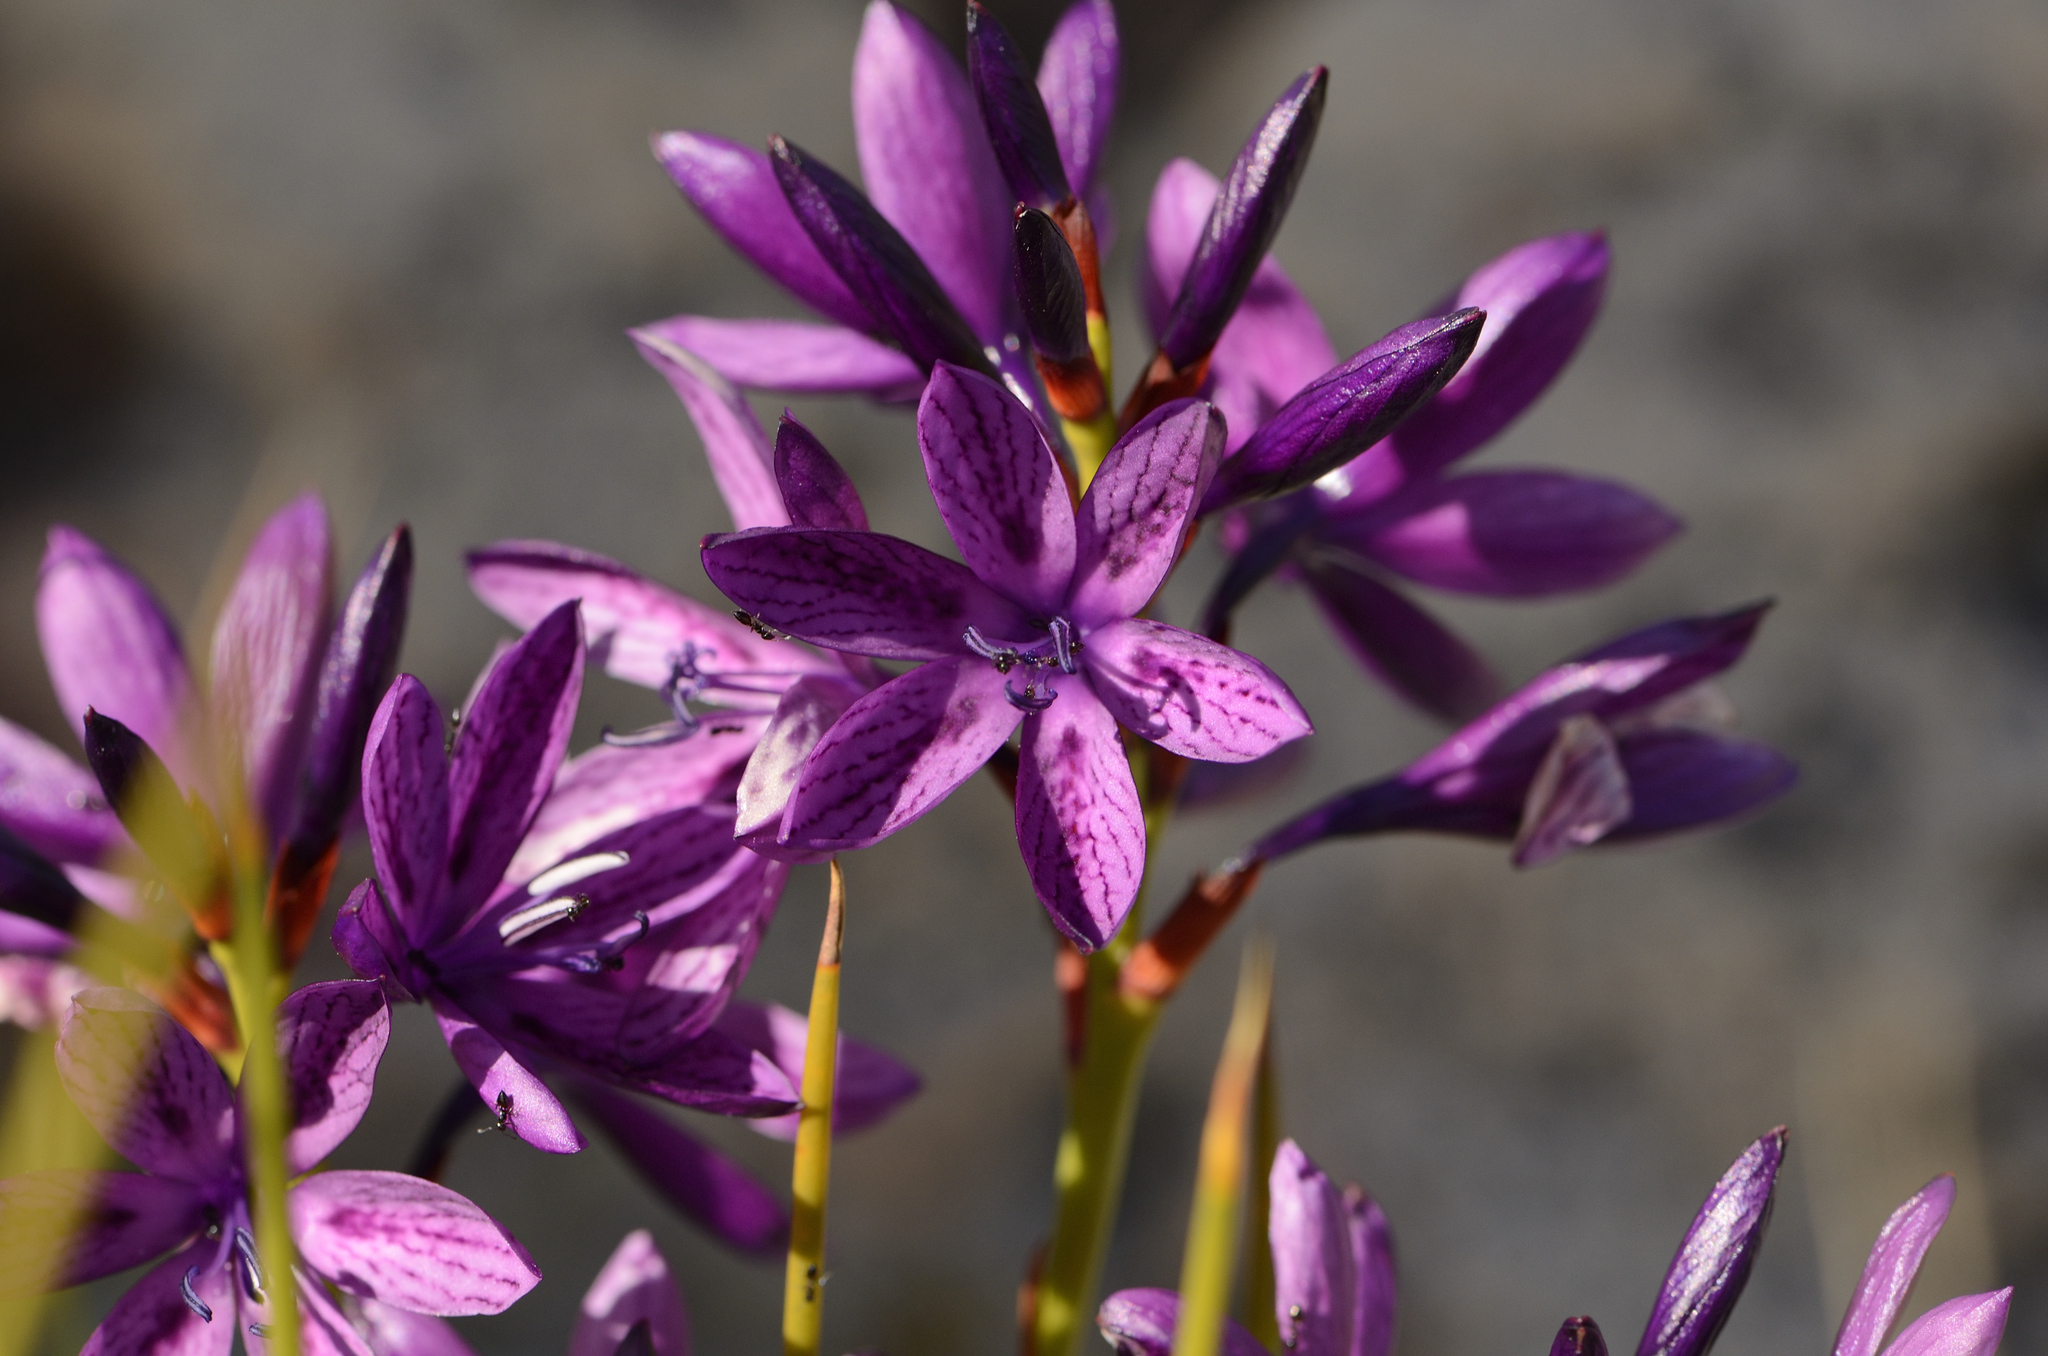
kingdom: Plantae
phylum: Tracheophyta
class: Liliopsida
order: Asparagales
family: Iridaceae
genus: Thereianthus
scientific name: Thereianthus bracteolatus
